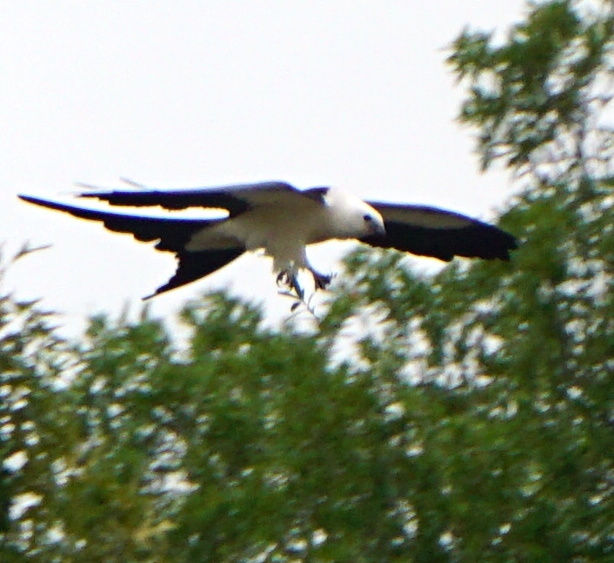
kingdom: Animalia
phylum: Chordata
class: Aves
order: Accipitriformes
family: Accipitridae
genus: Elanoides
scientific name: Elanoides forficatus
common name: Swallow-tailed kite
